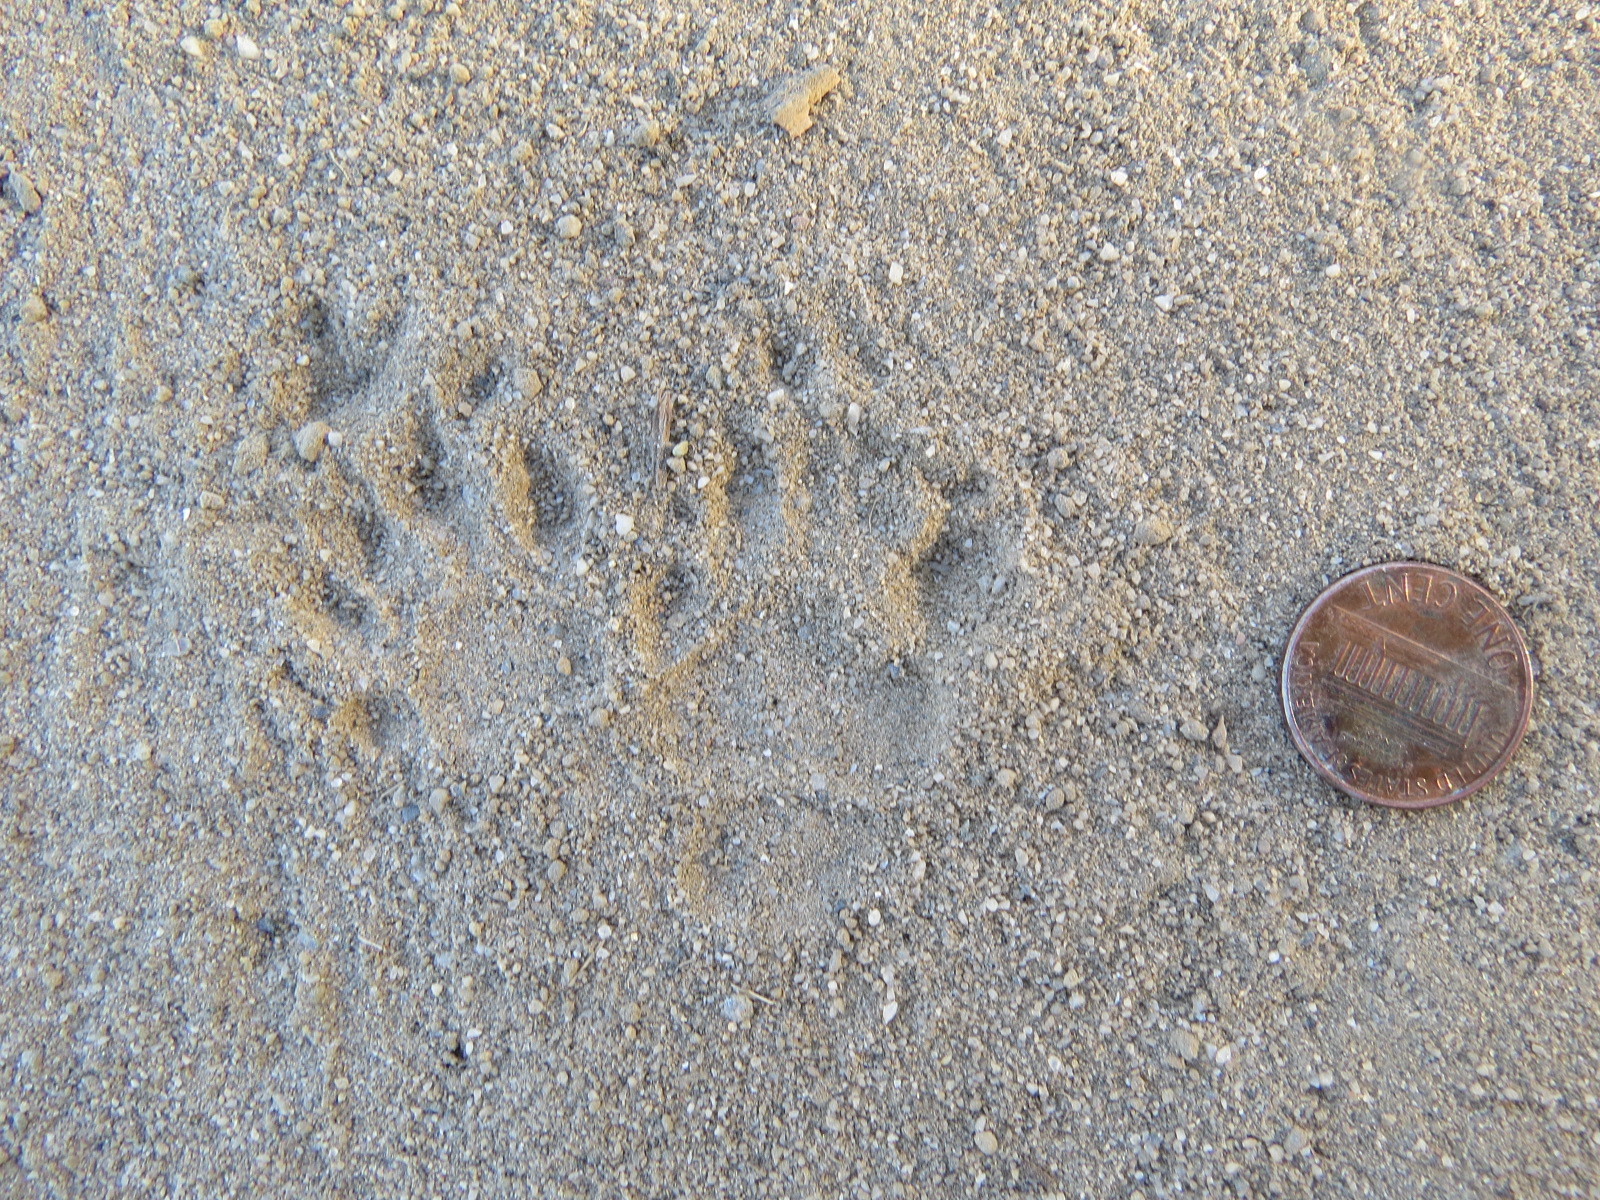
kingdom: Animalia
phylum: Chordata
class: Mammalia
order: Carnivora
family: Mephitidae
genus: Mephitis
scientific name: Mephitis mephitis
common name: Striped skunk
